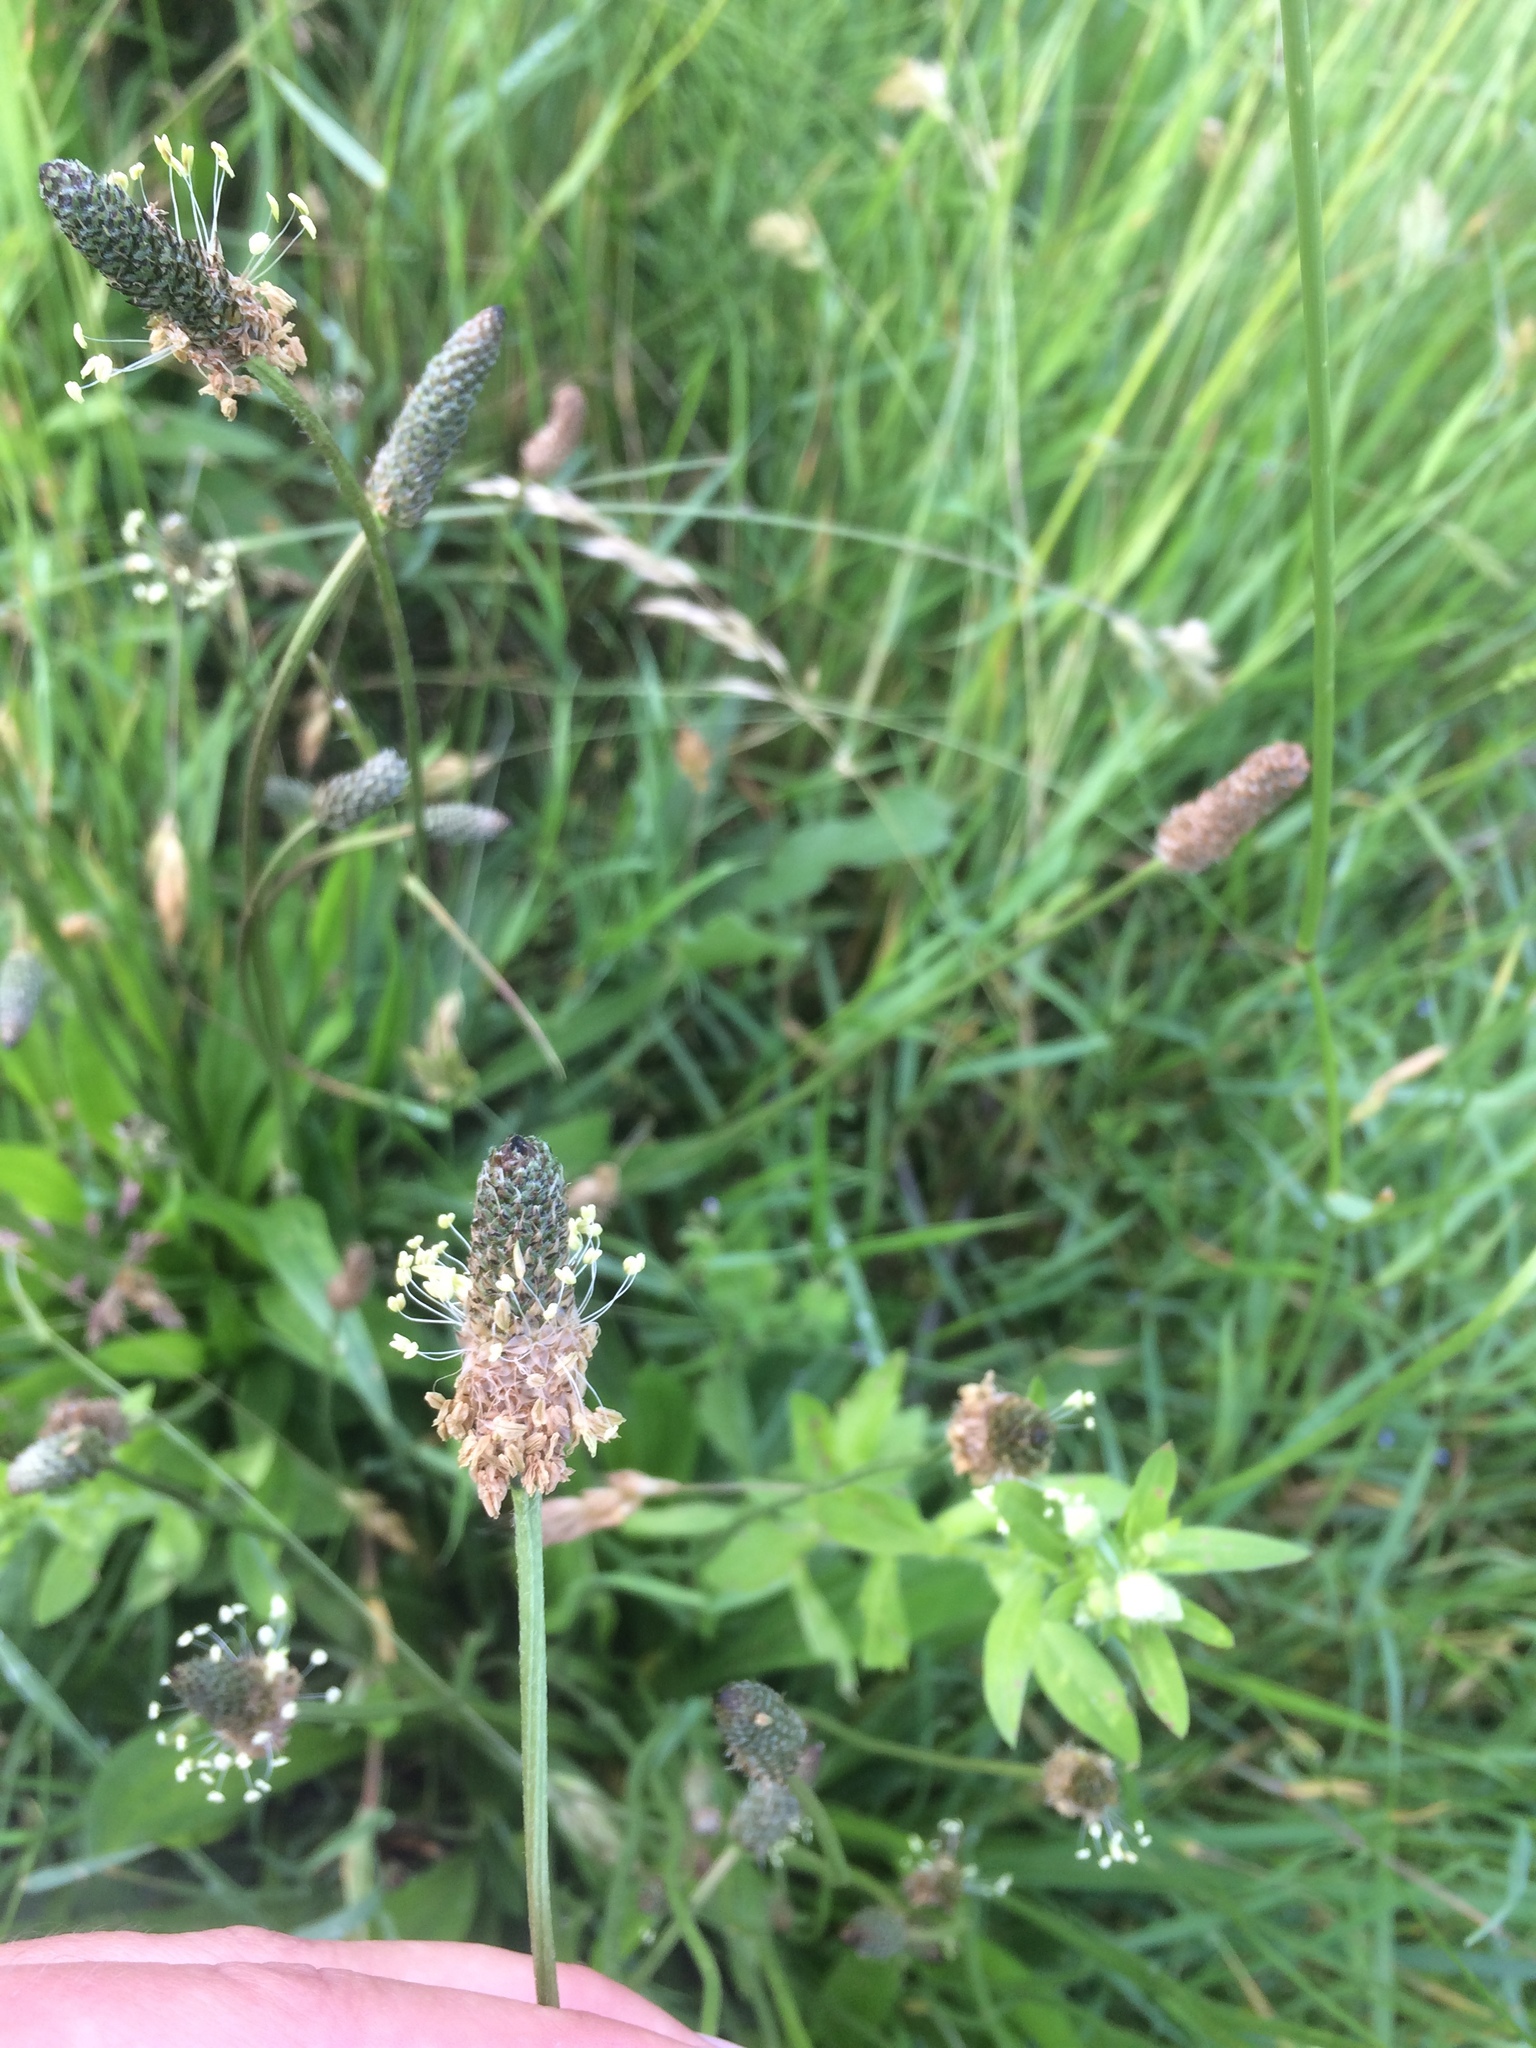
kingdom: Plantae
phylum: Tracheophyta
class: Magnoliopsida
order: Lamiales
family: Plantaginaceae
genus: Plantago
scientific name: Plantago lanceolata
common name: Ribwort plantain
